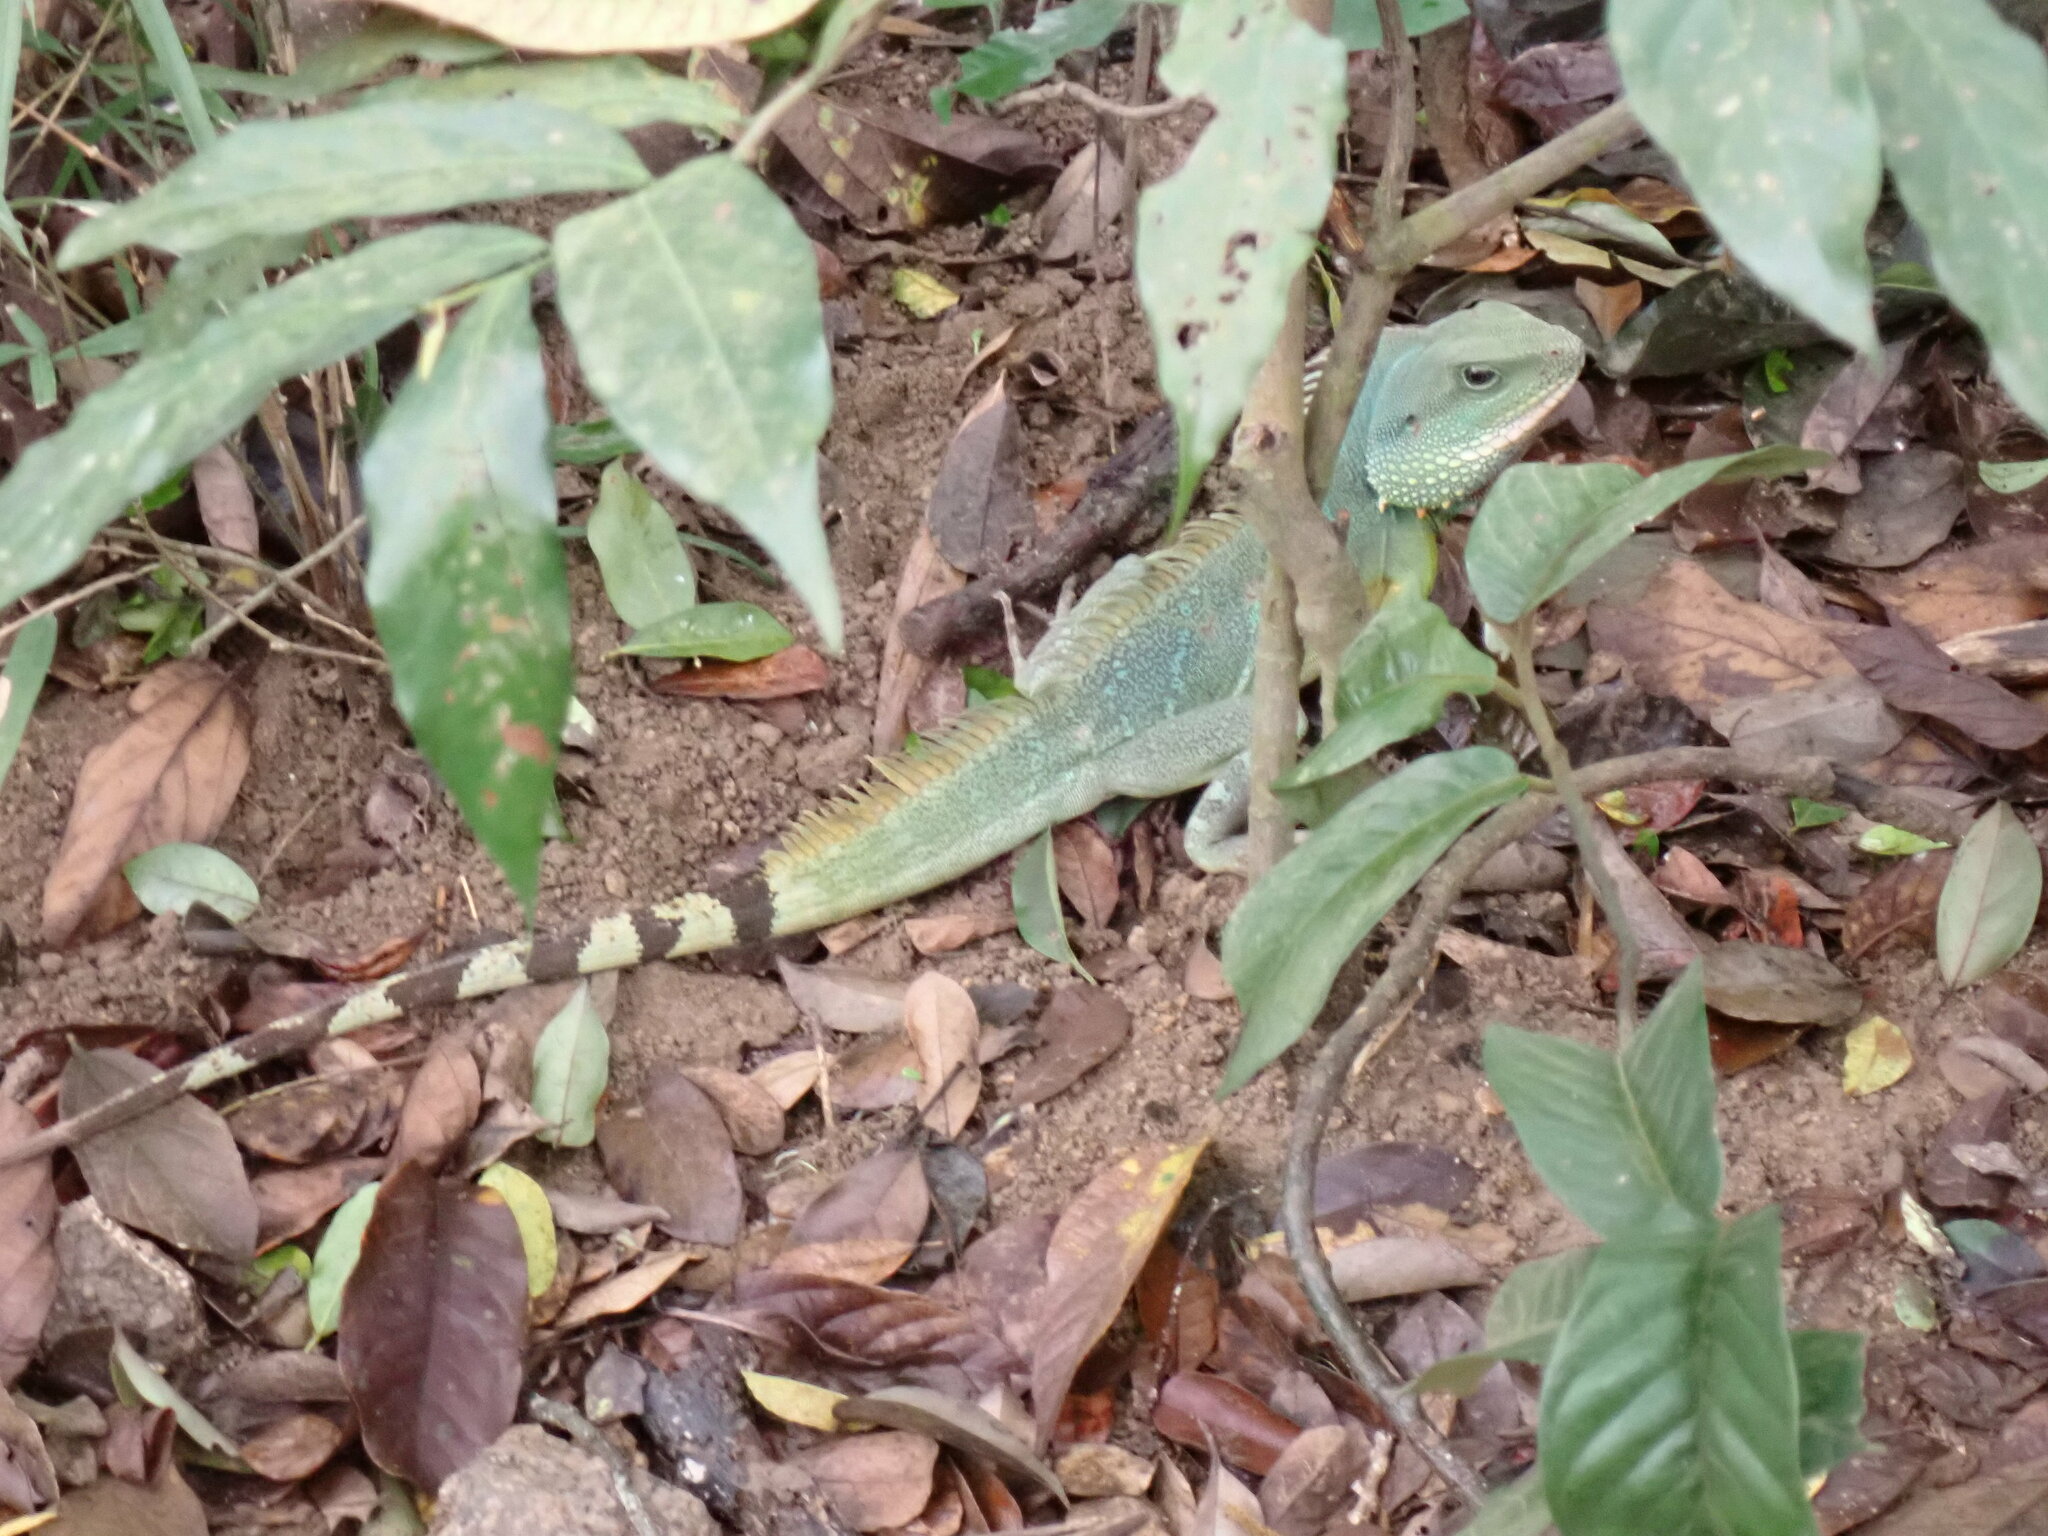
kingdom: Animalia
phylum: Chordata
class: Squamata
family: Agamidae
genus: Physignathus
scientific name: Physignathus cocincinus
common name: Asian water dragon
